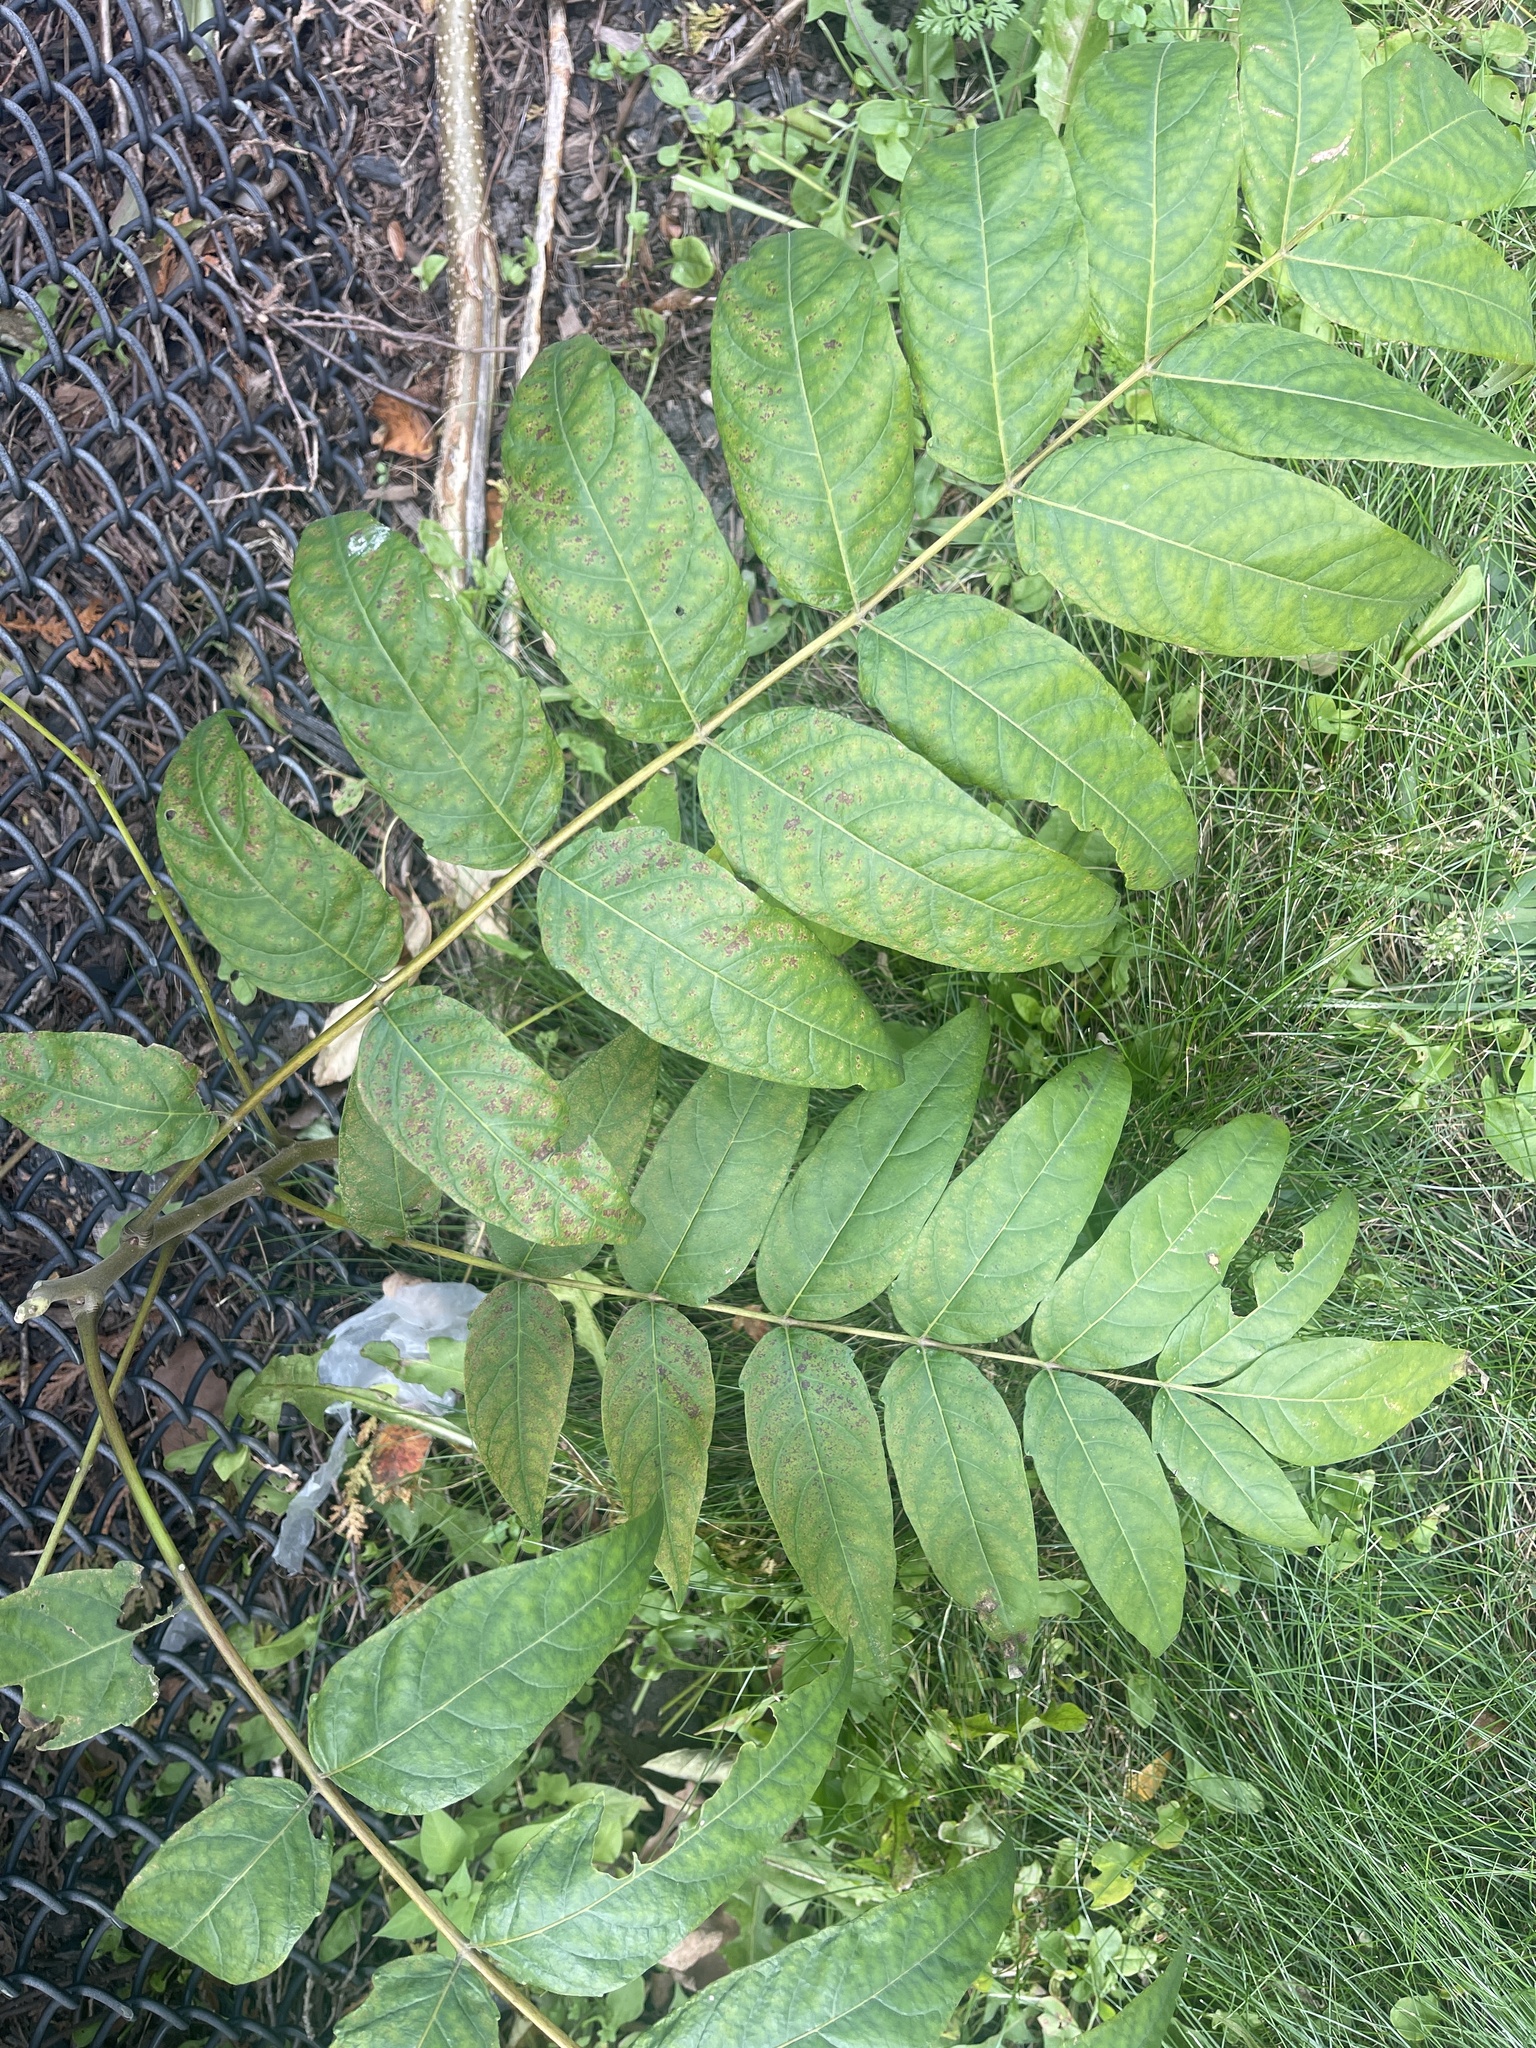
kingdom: Plantae
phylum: Tracheophyta
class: Magnoliopsida
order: Sapindales
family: Simaroubaceae
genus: Ailanthus
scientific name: Ailanthus altissima
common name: Tree-of-heaven
